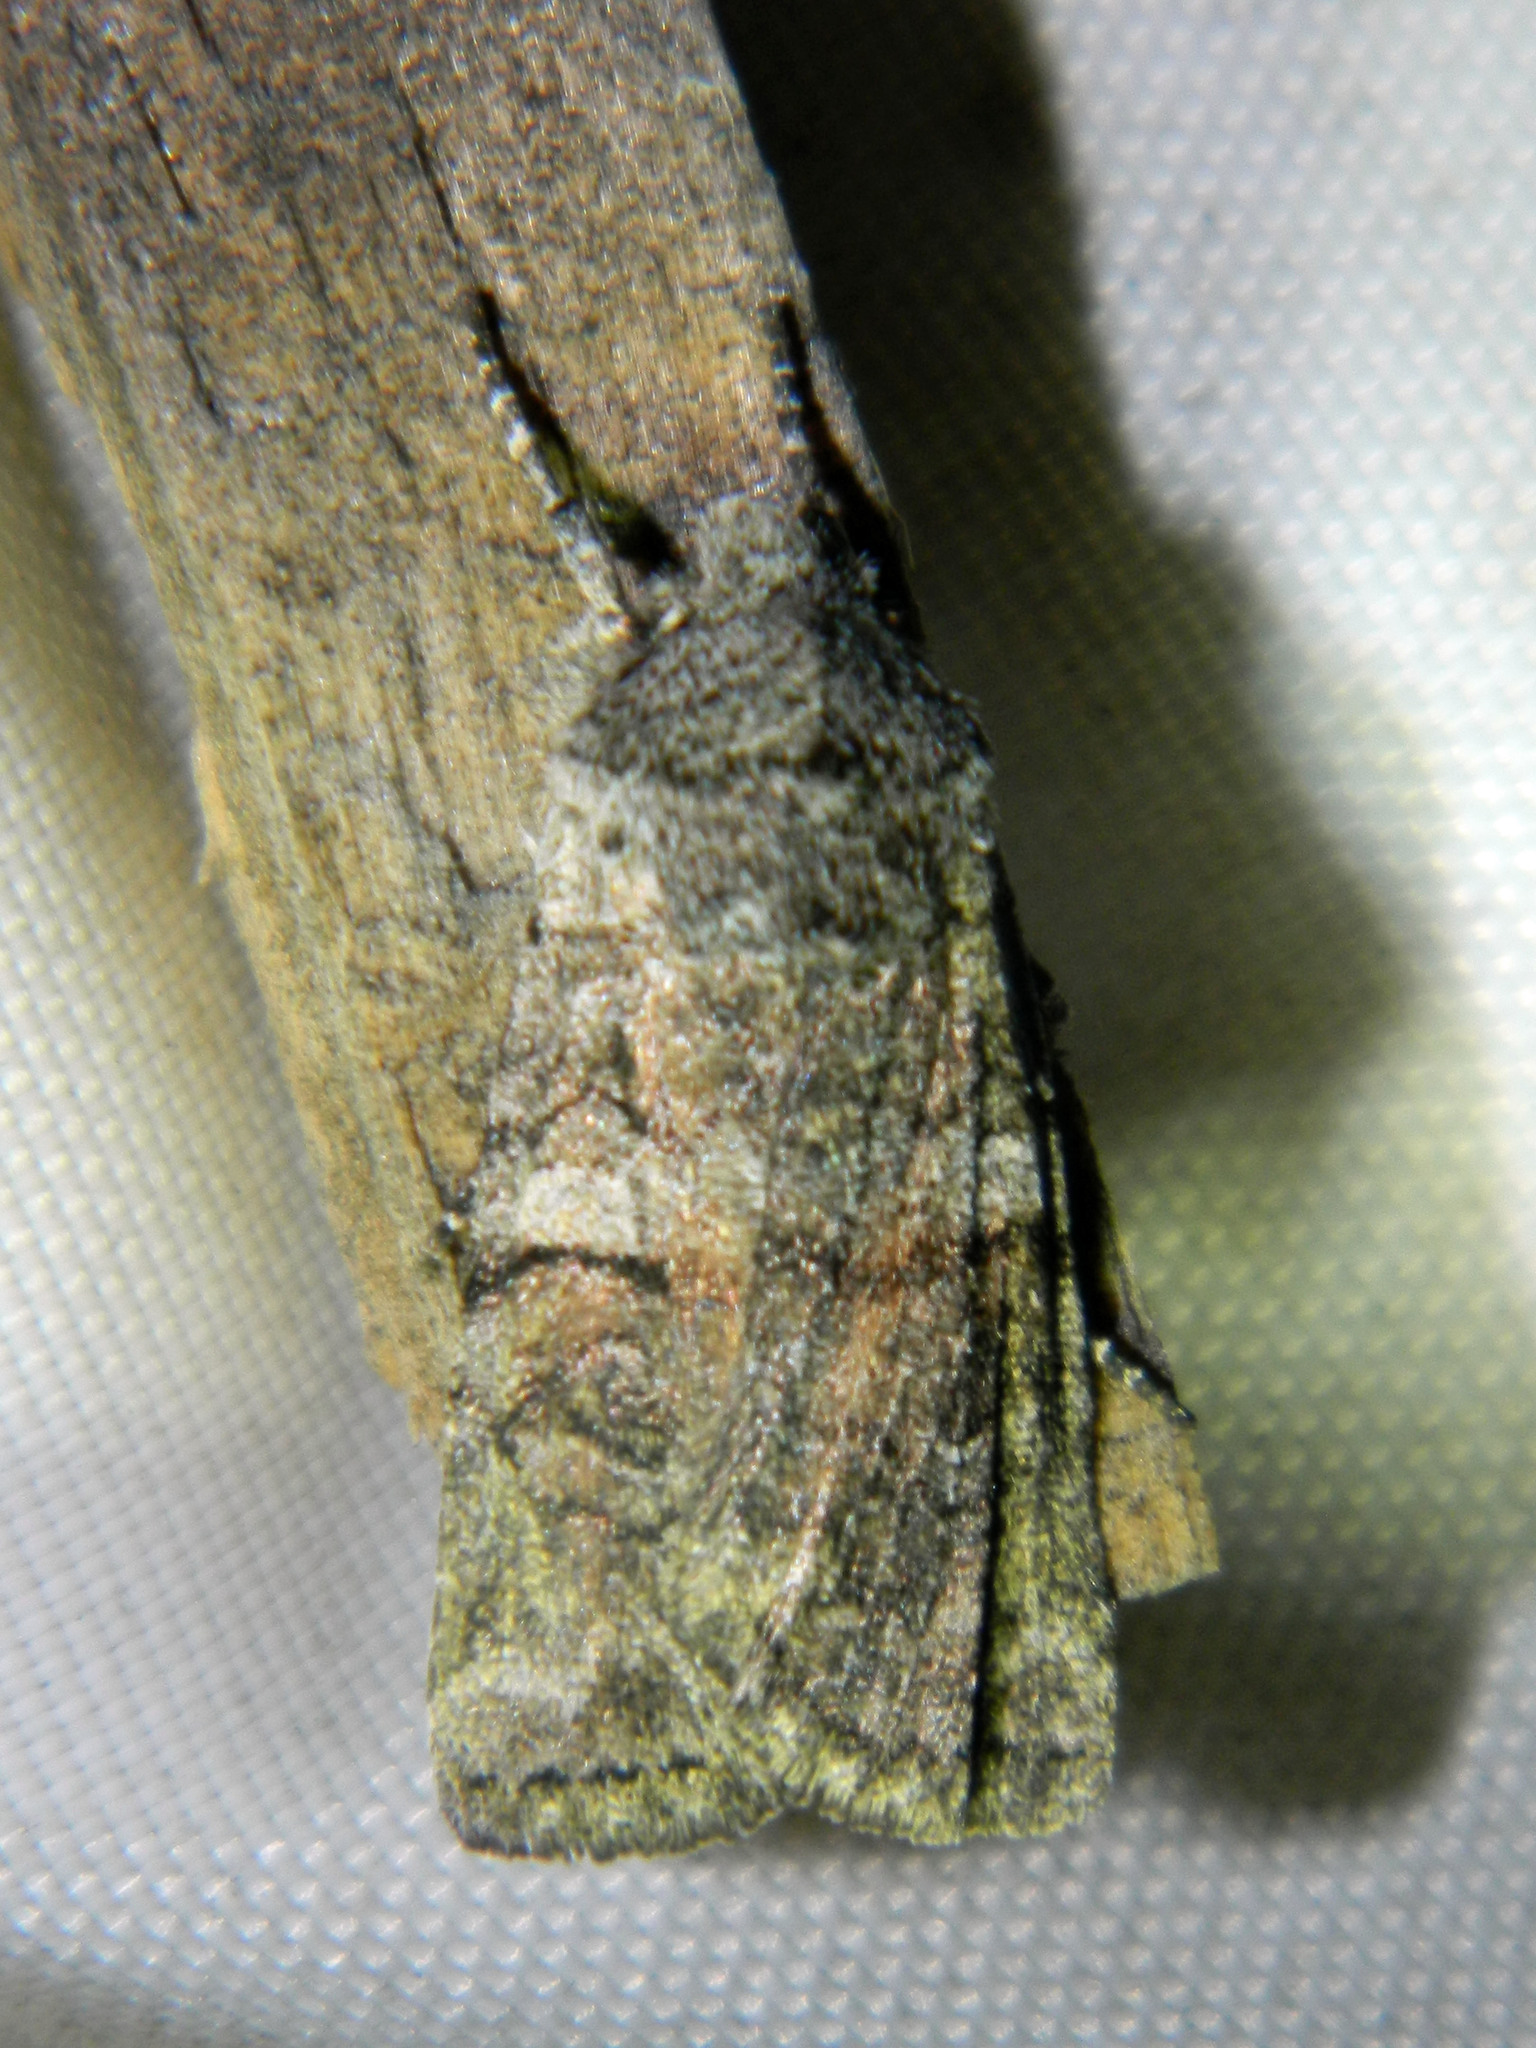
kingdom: Animalia
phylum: Arthropoda
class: Insecta
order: Lepidoptera
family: Noctuidae
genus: Litholomia
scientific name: Litholomia napaea
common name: False pinion moth
